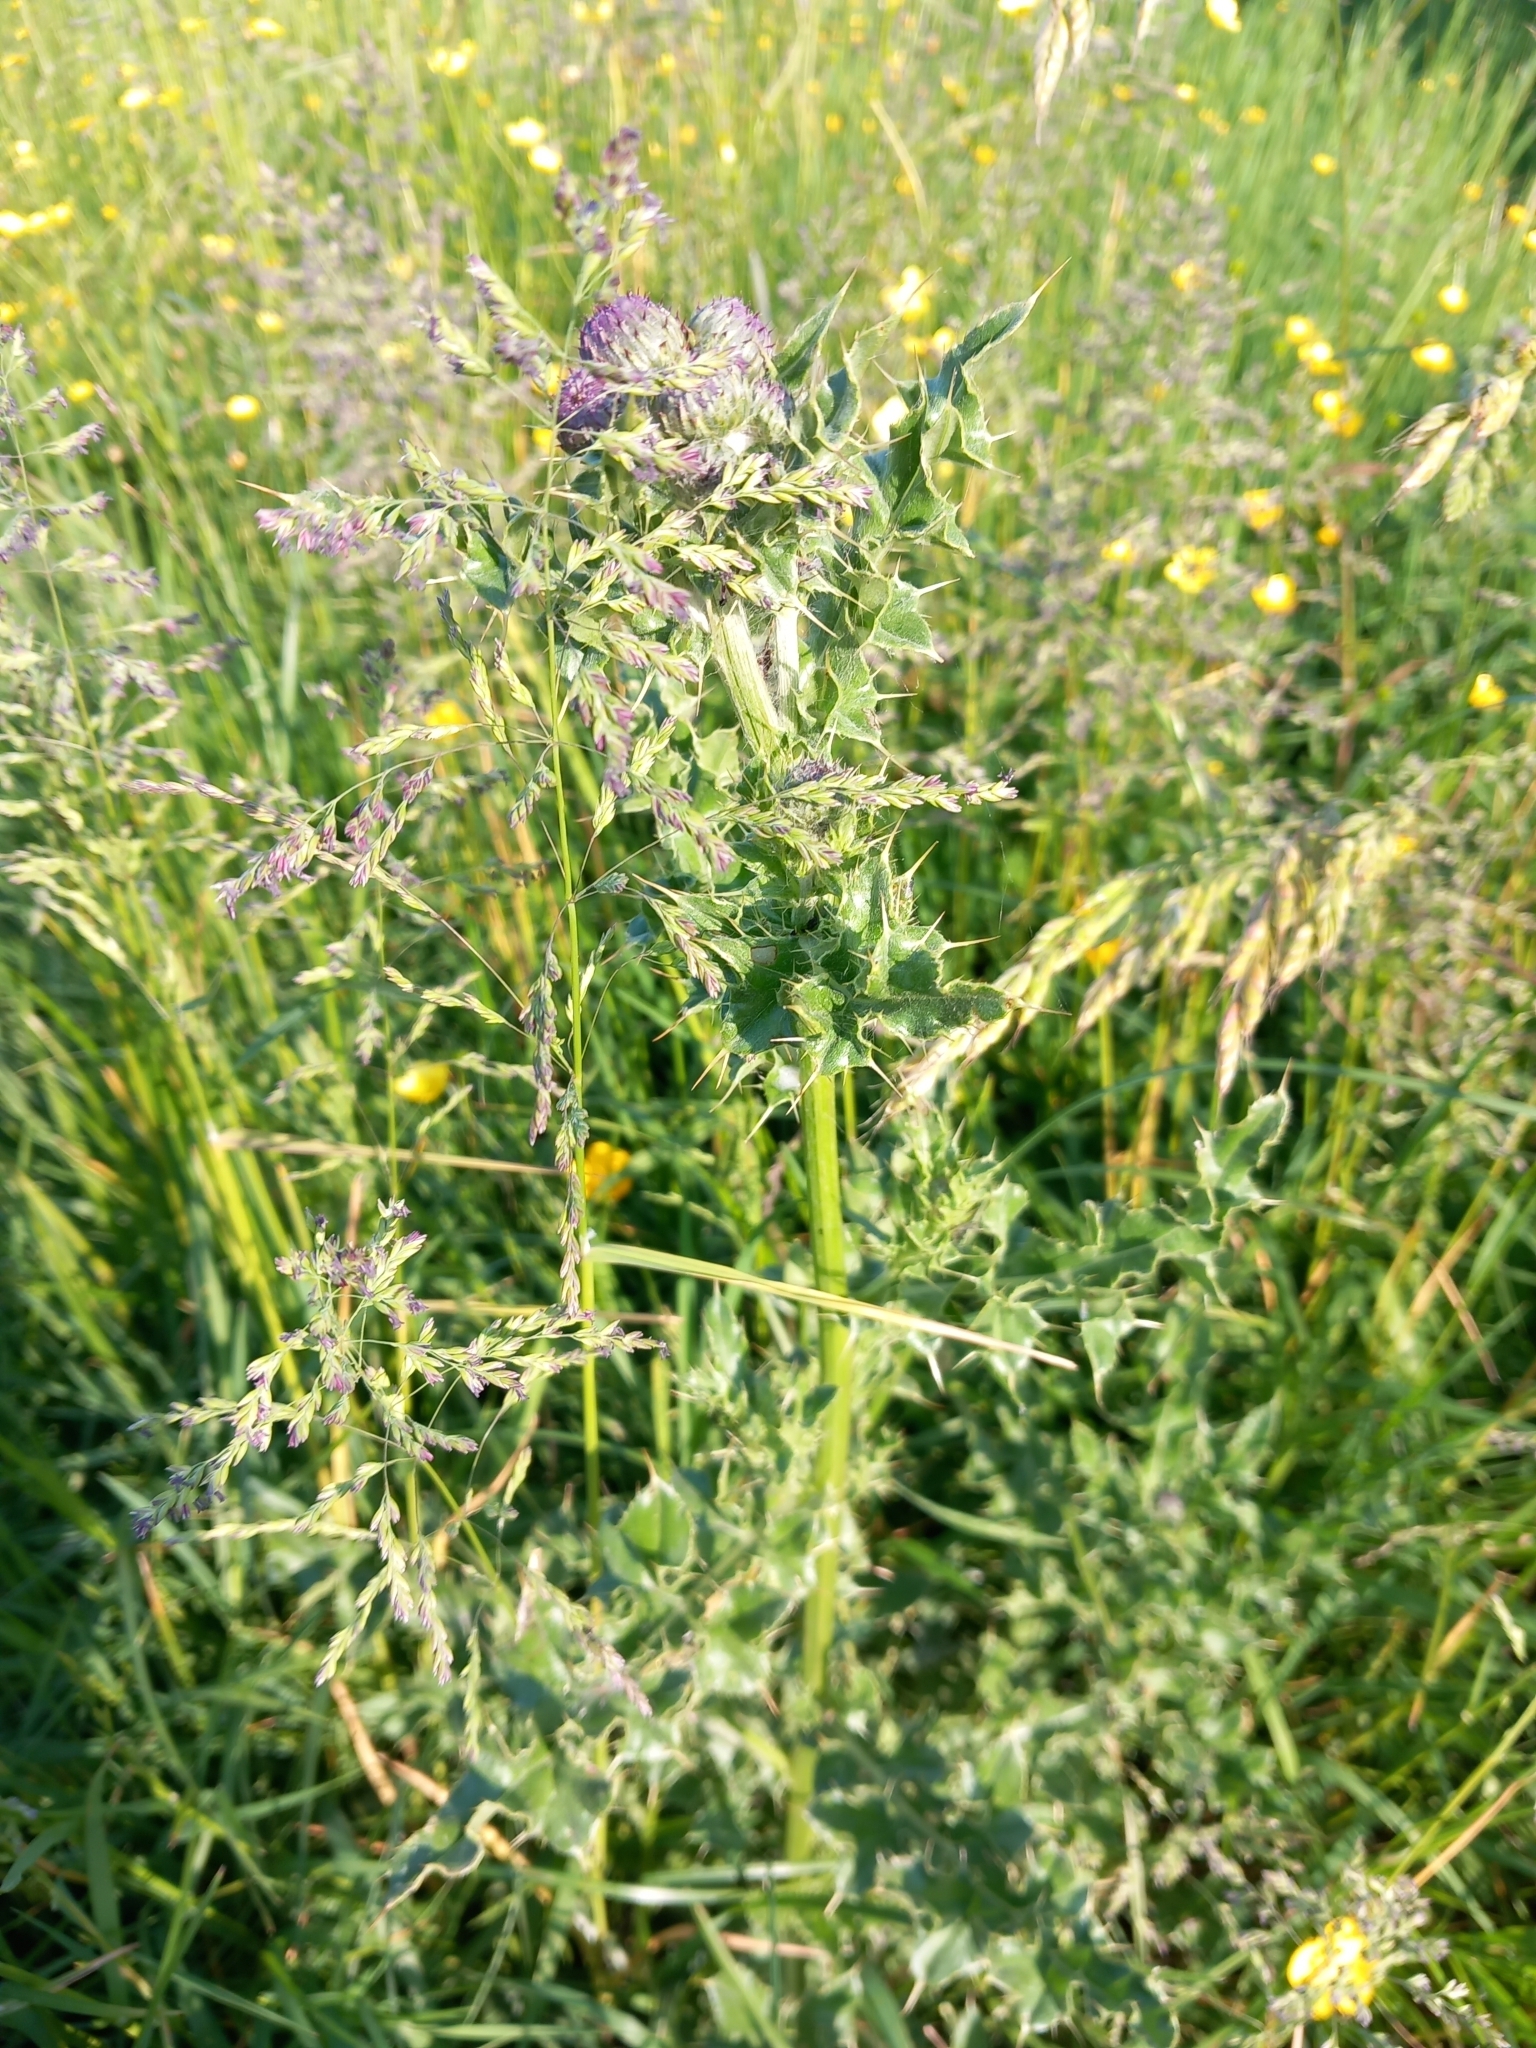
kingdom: Plantae
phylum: Tracheophyta
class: Magnoliopsida
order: Asterales
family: Asteraceae
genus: Cirsium
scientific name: Cirsium arvense
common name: Creeping thistle
